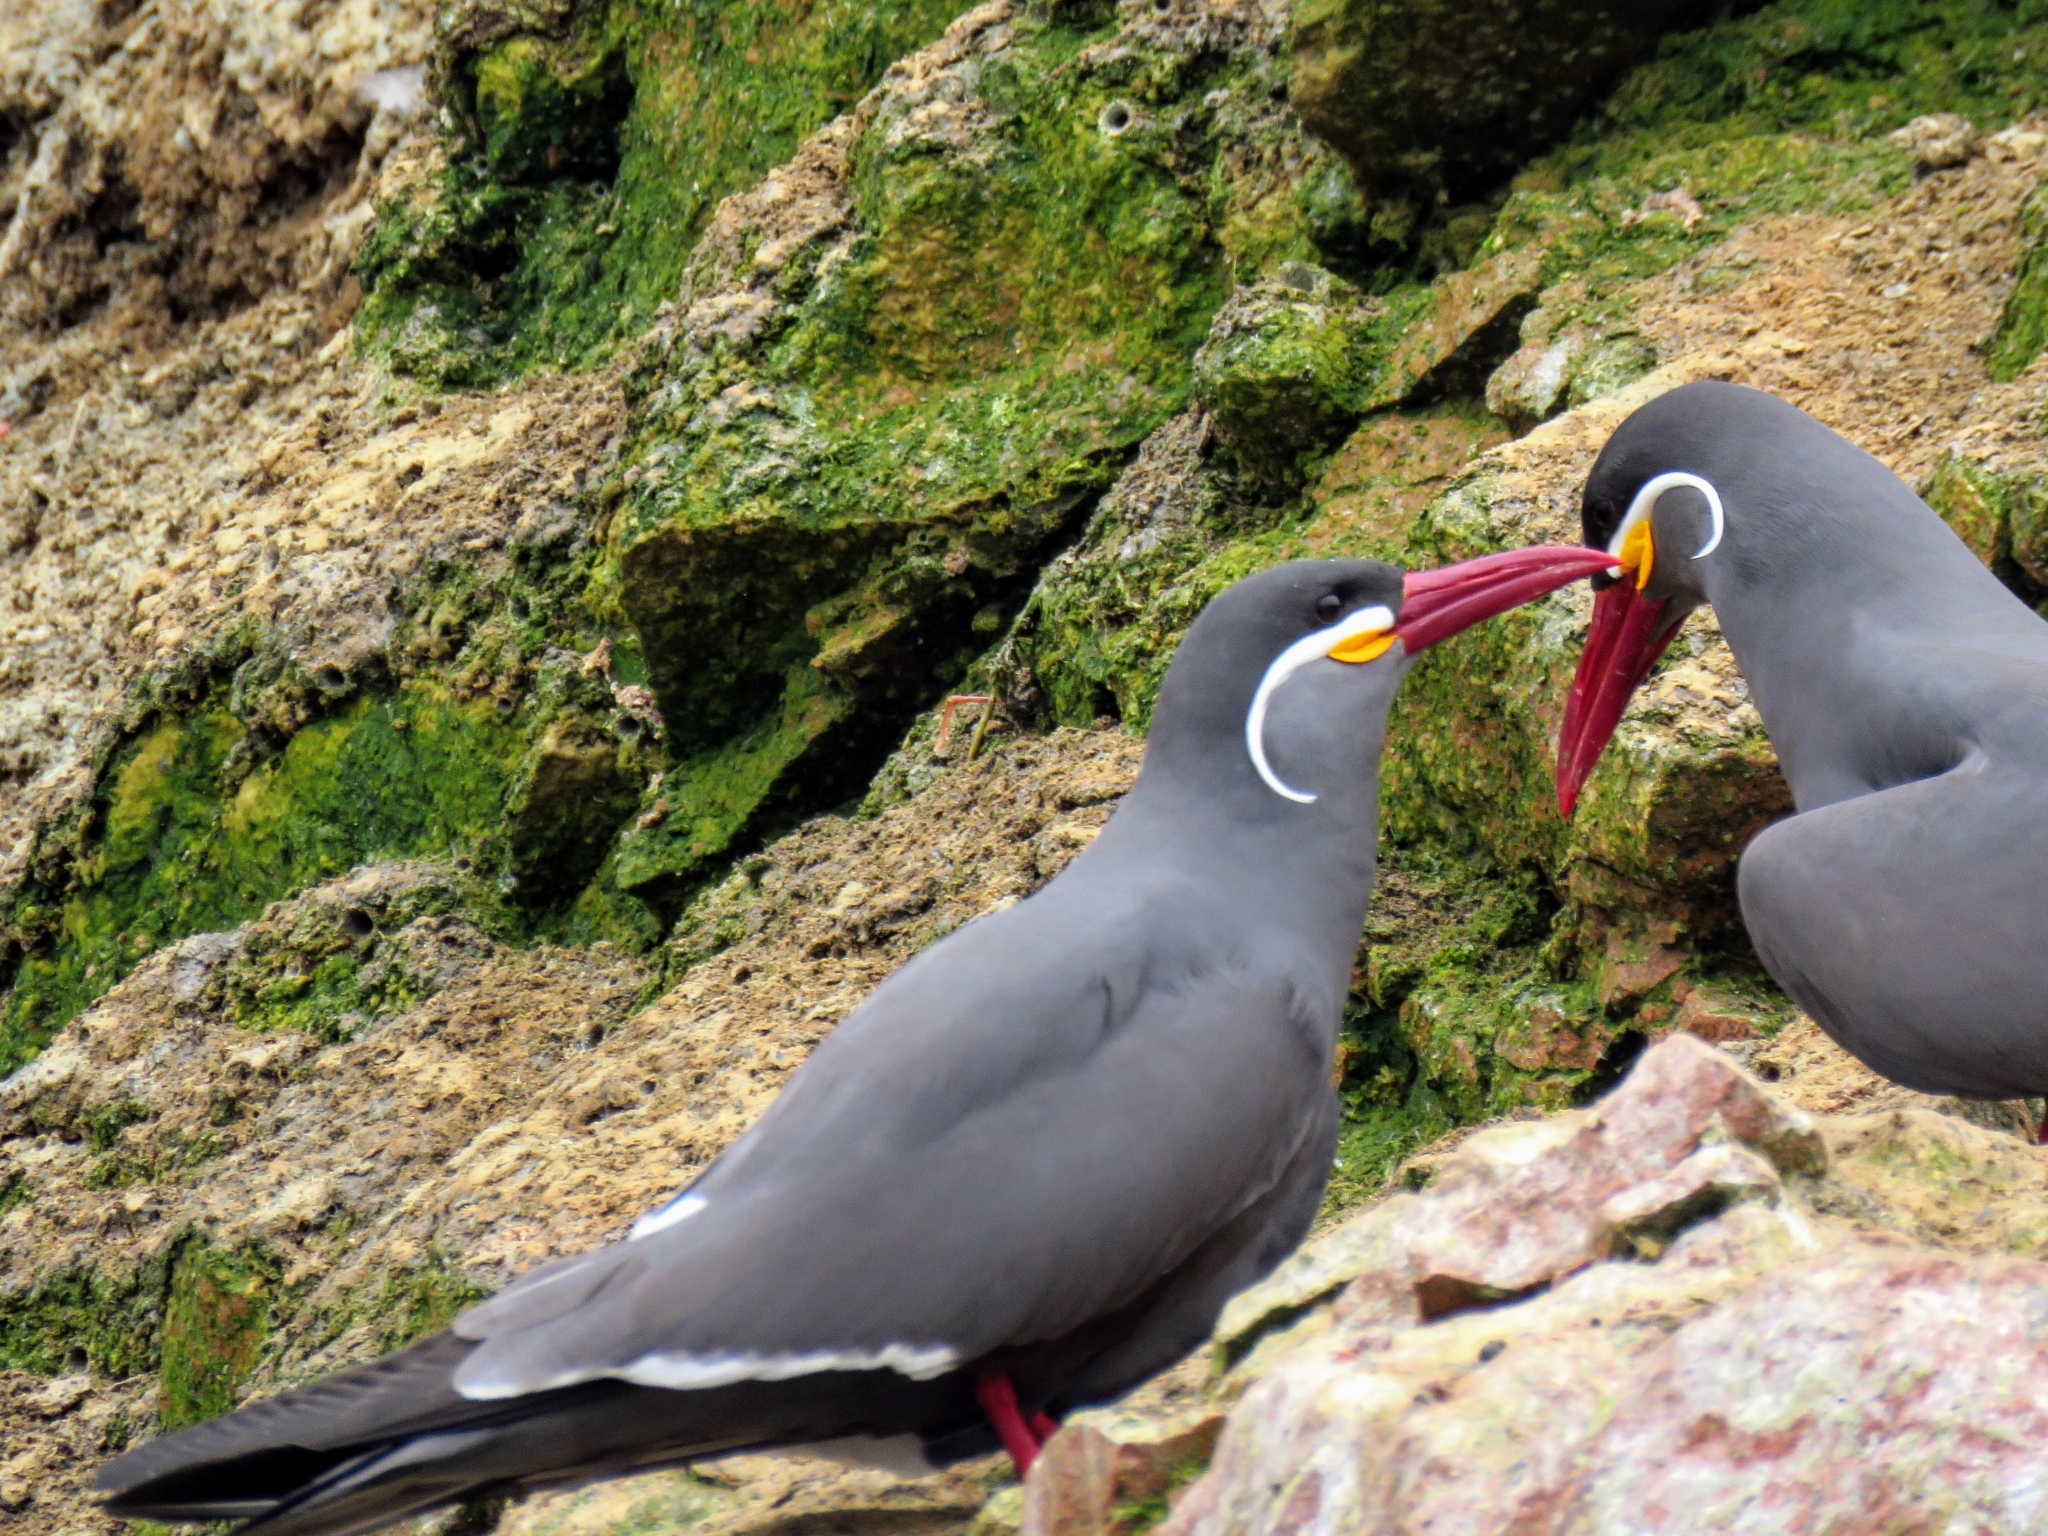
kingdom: Animalia
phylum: Chordata
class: Aves
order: Charadriiformes
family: Laridae
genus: Larosterna
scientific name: Larosterna inca
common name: Inca tern
